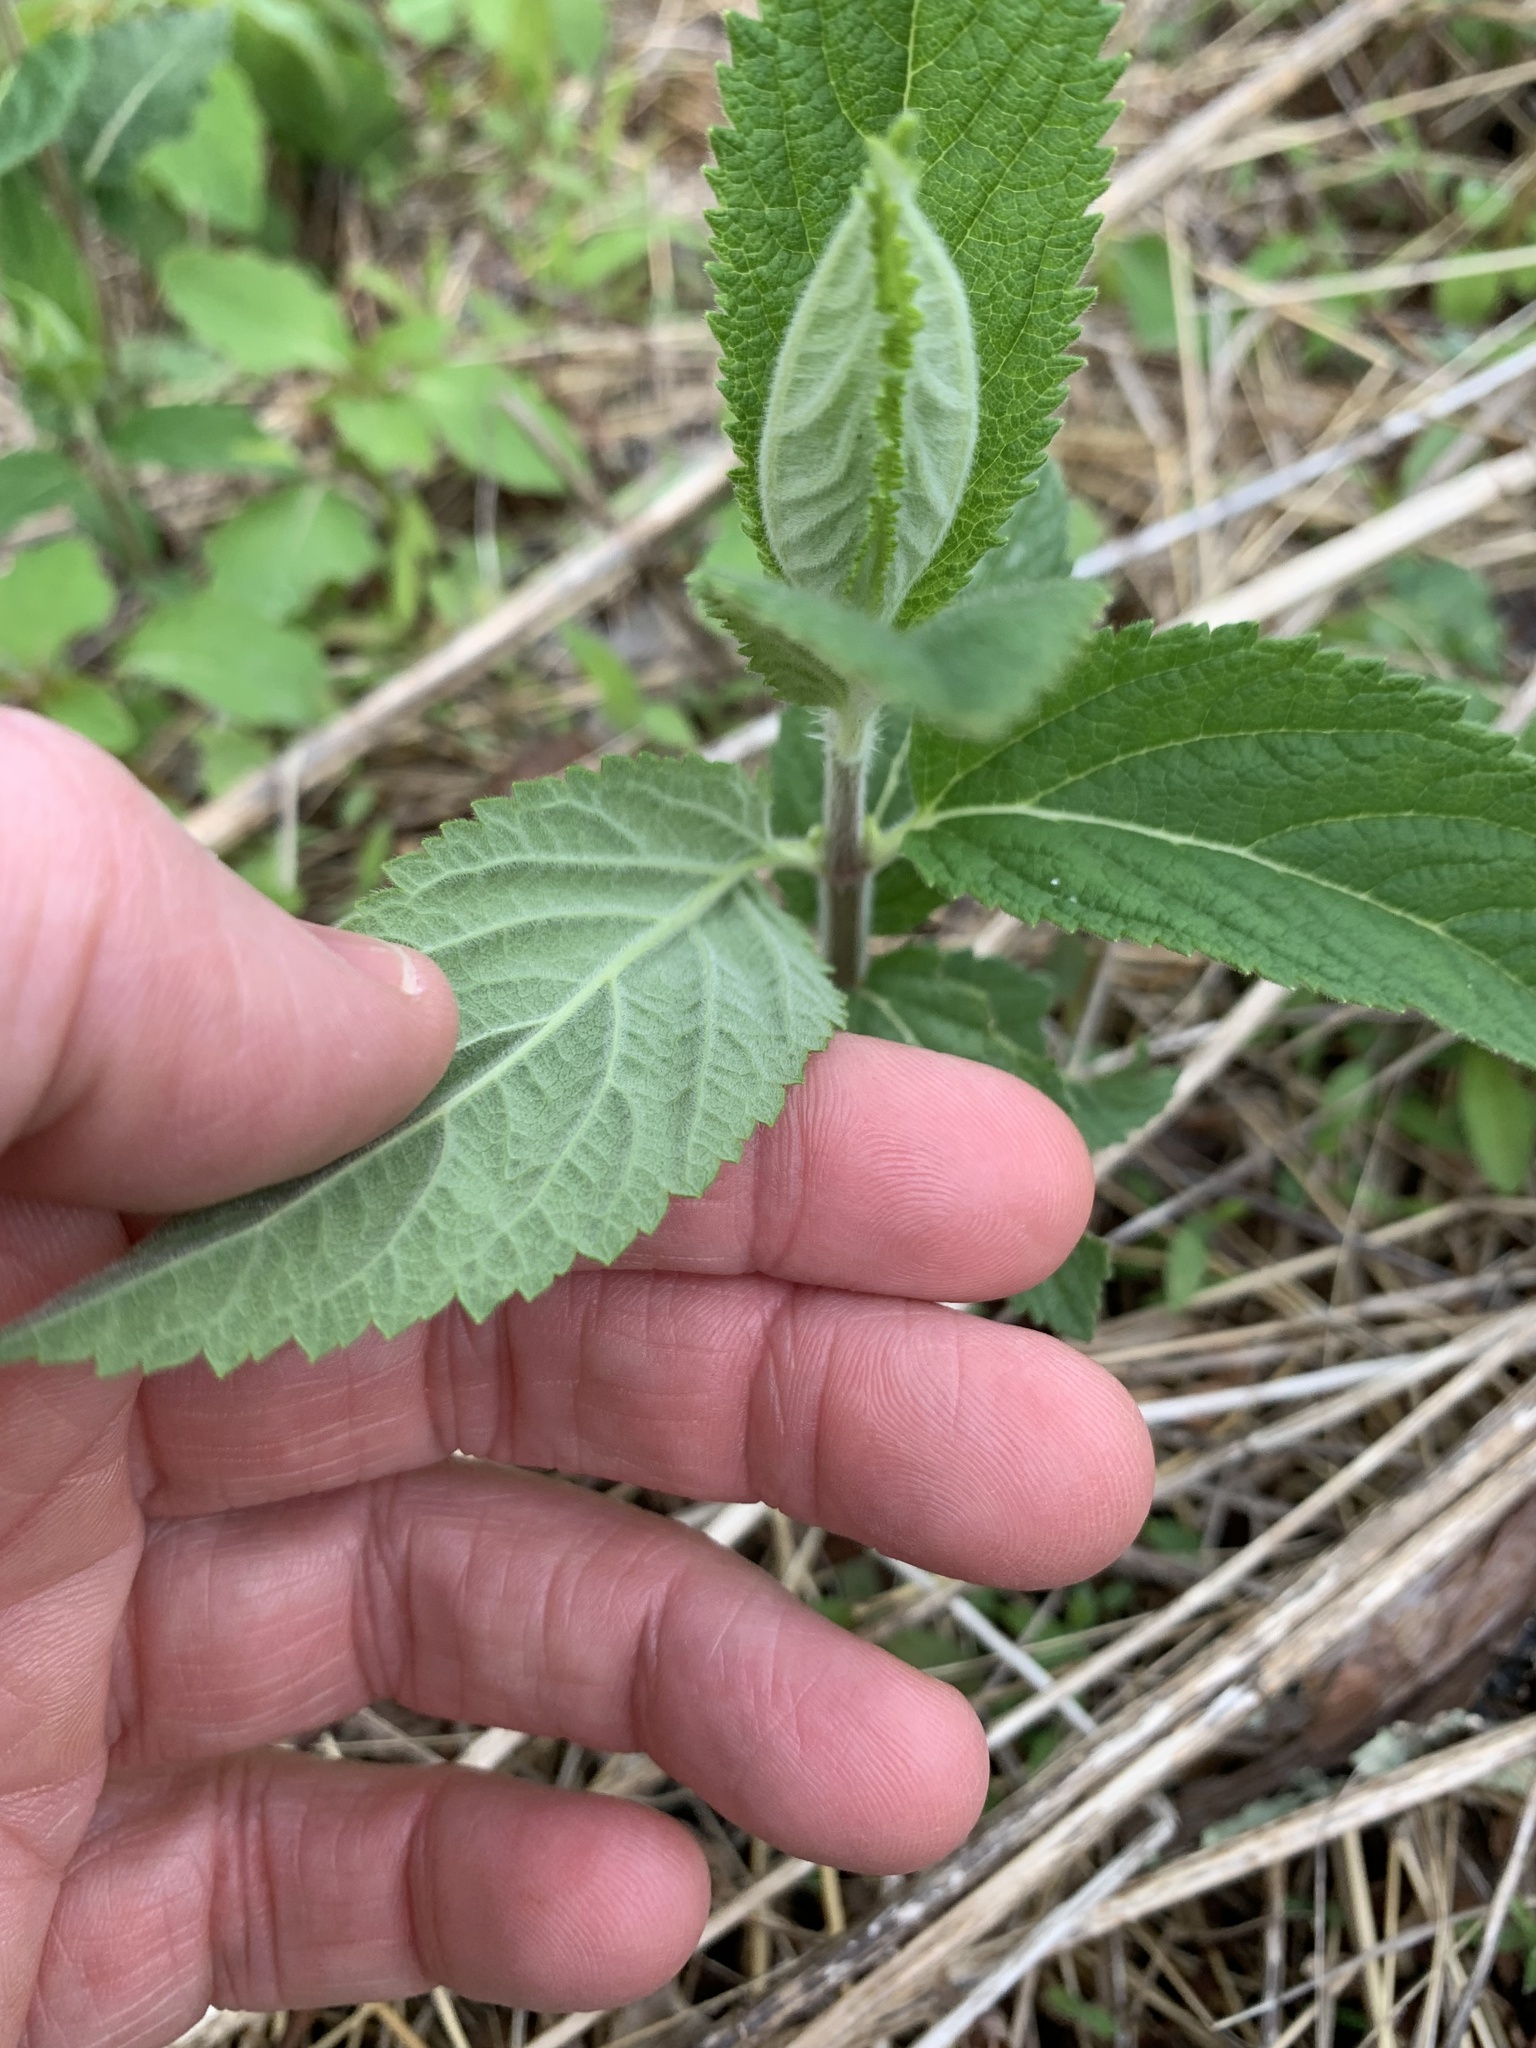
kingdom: Plantae
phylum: Tracheophyta
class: Magnoliopsida
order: Lamiales
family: Lamiaceae
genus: Teucrium
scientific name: Teucrium canadense
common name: American germander
